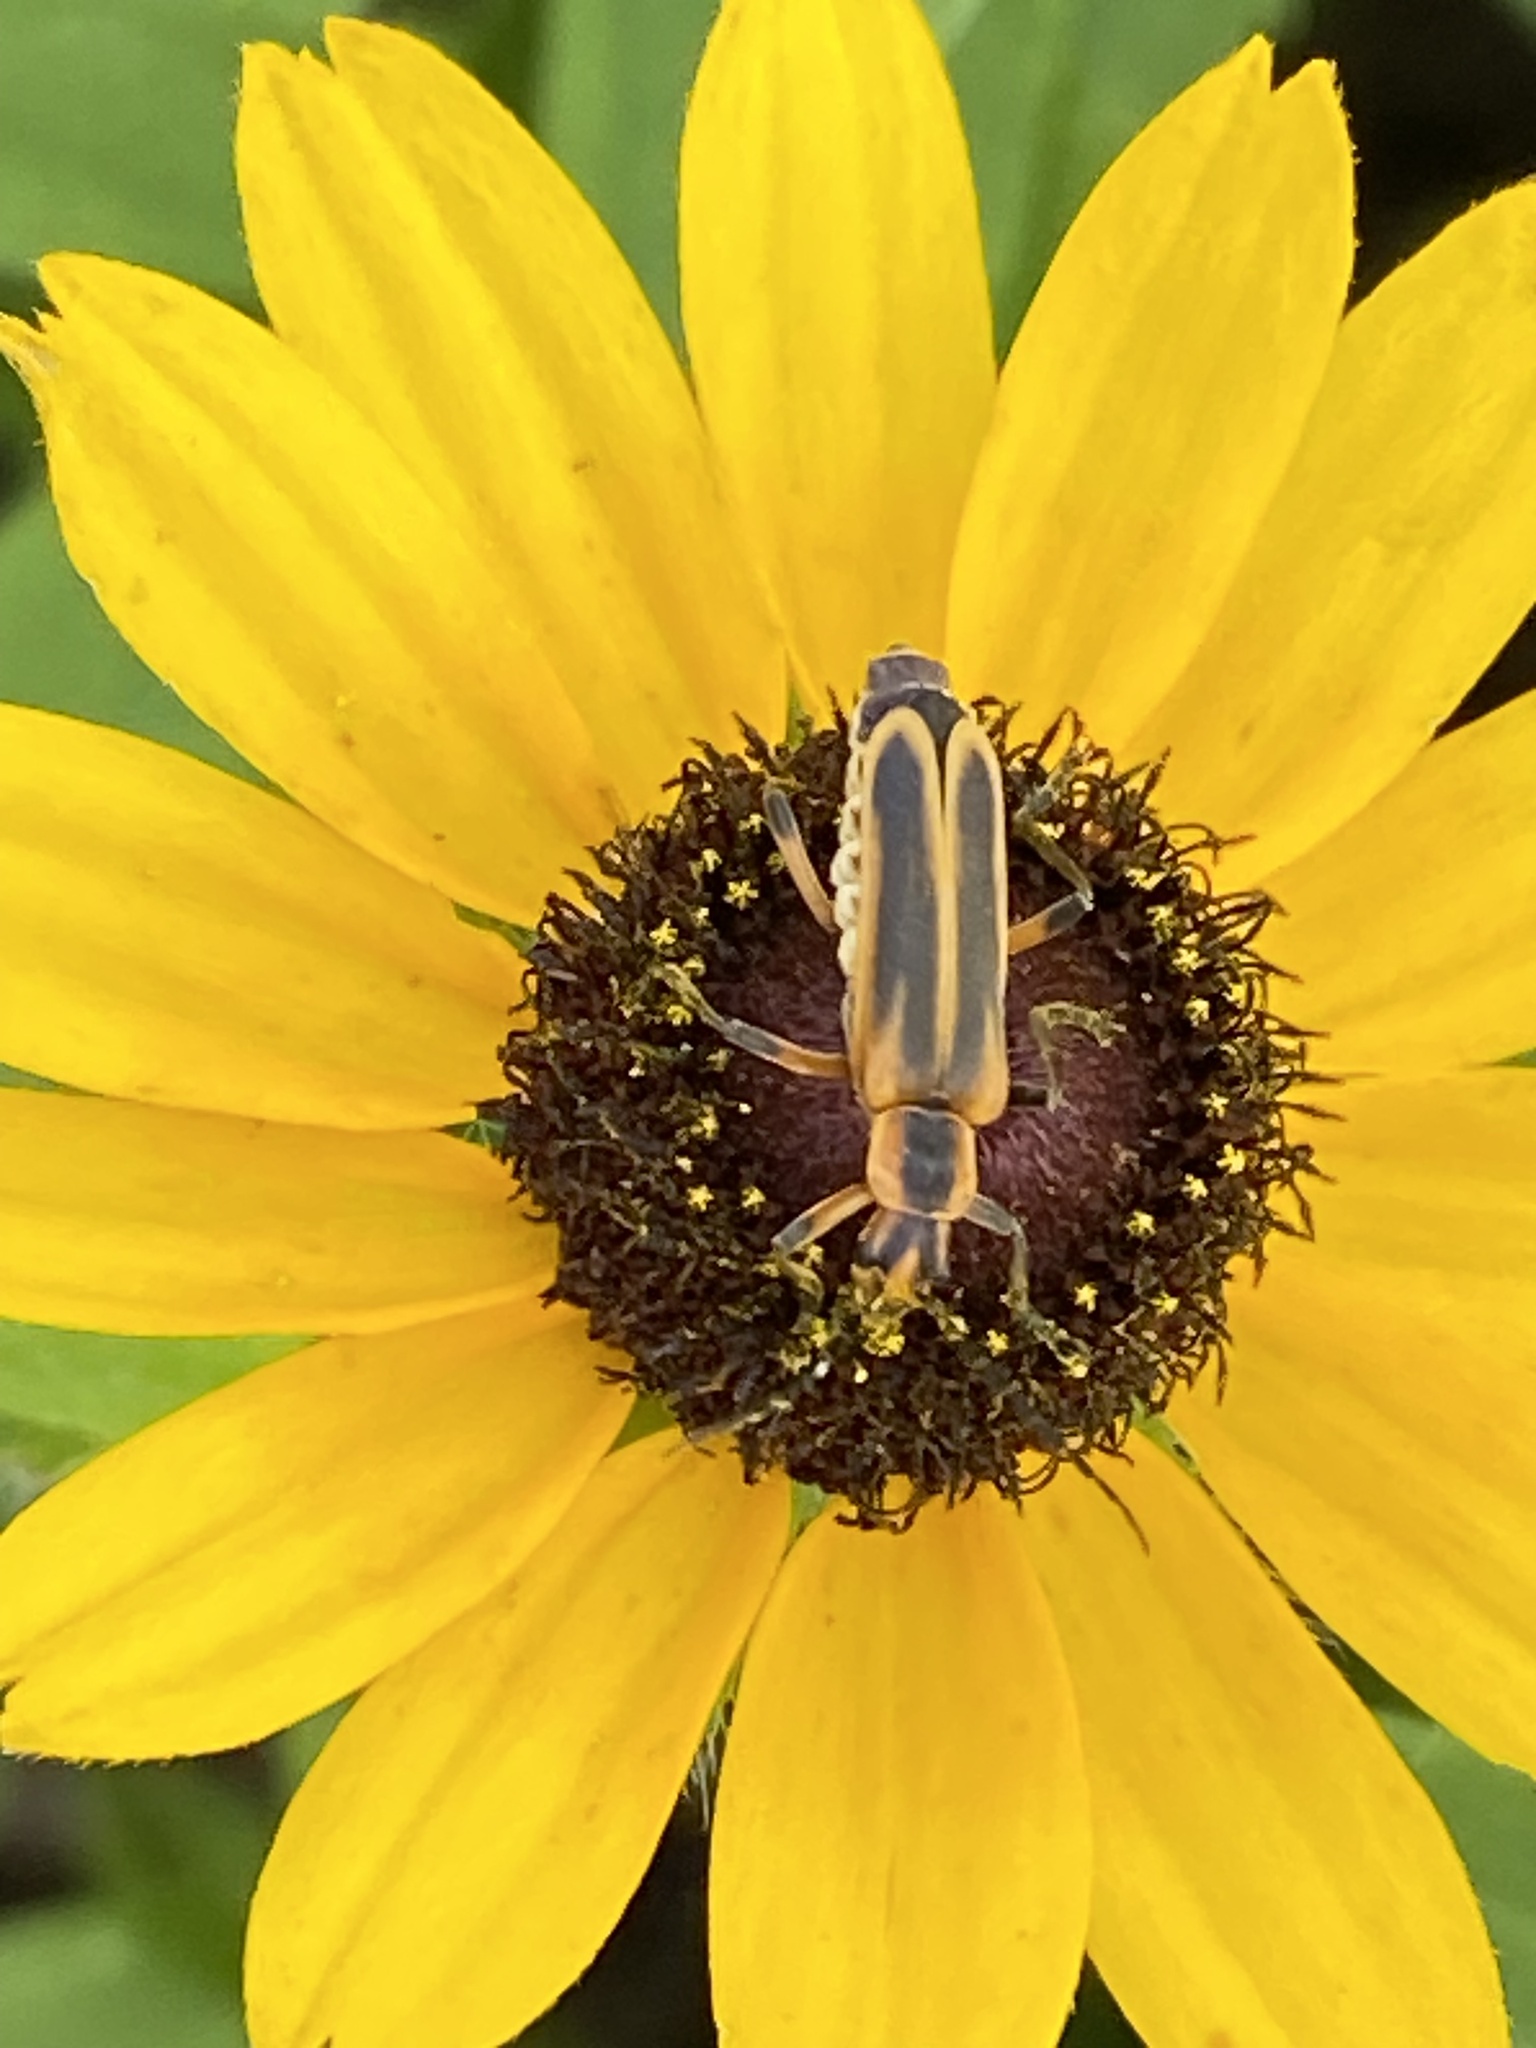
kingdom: Animalia
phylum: Arthropoda
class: Insecta
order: Coleoptera
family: Cantharidae
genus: Chauliognathus
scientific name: Chauliognathus marginatus
